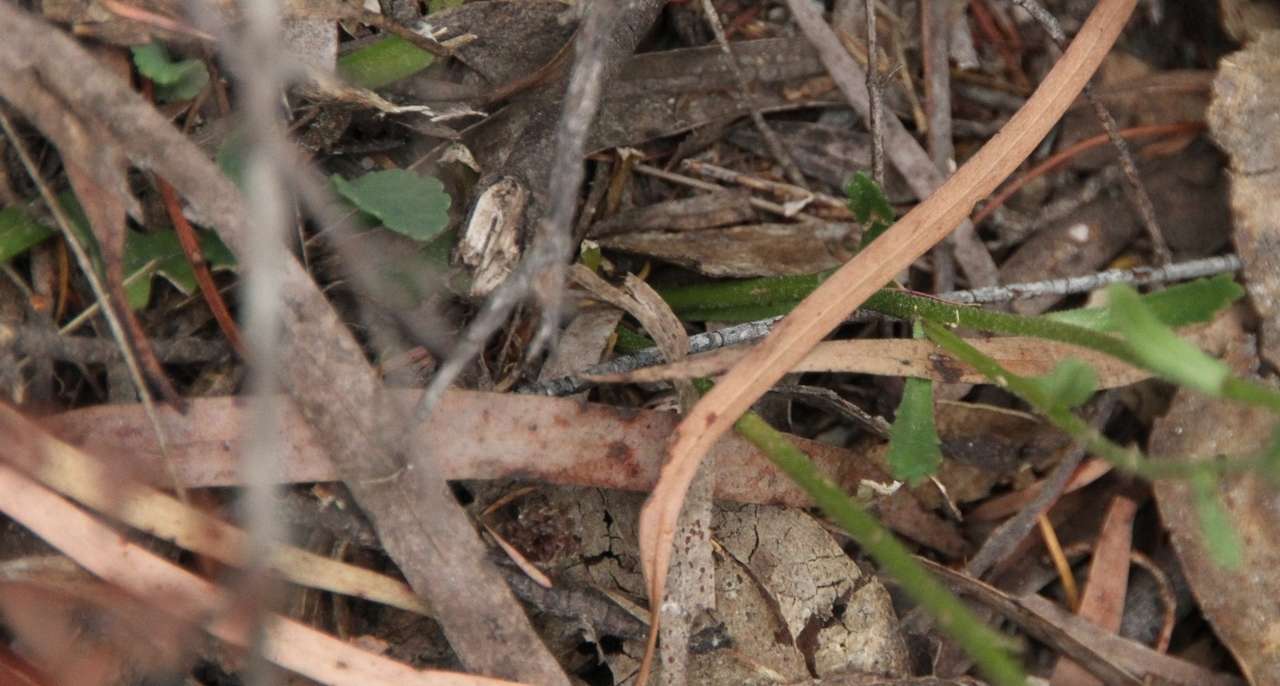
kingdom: Plantae
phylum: Tracheophyta
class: Magnoliopsida
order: Asterales
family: Asteraceae
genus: Brachyscome
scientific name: Brachyscome spathulata
